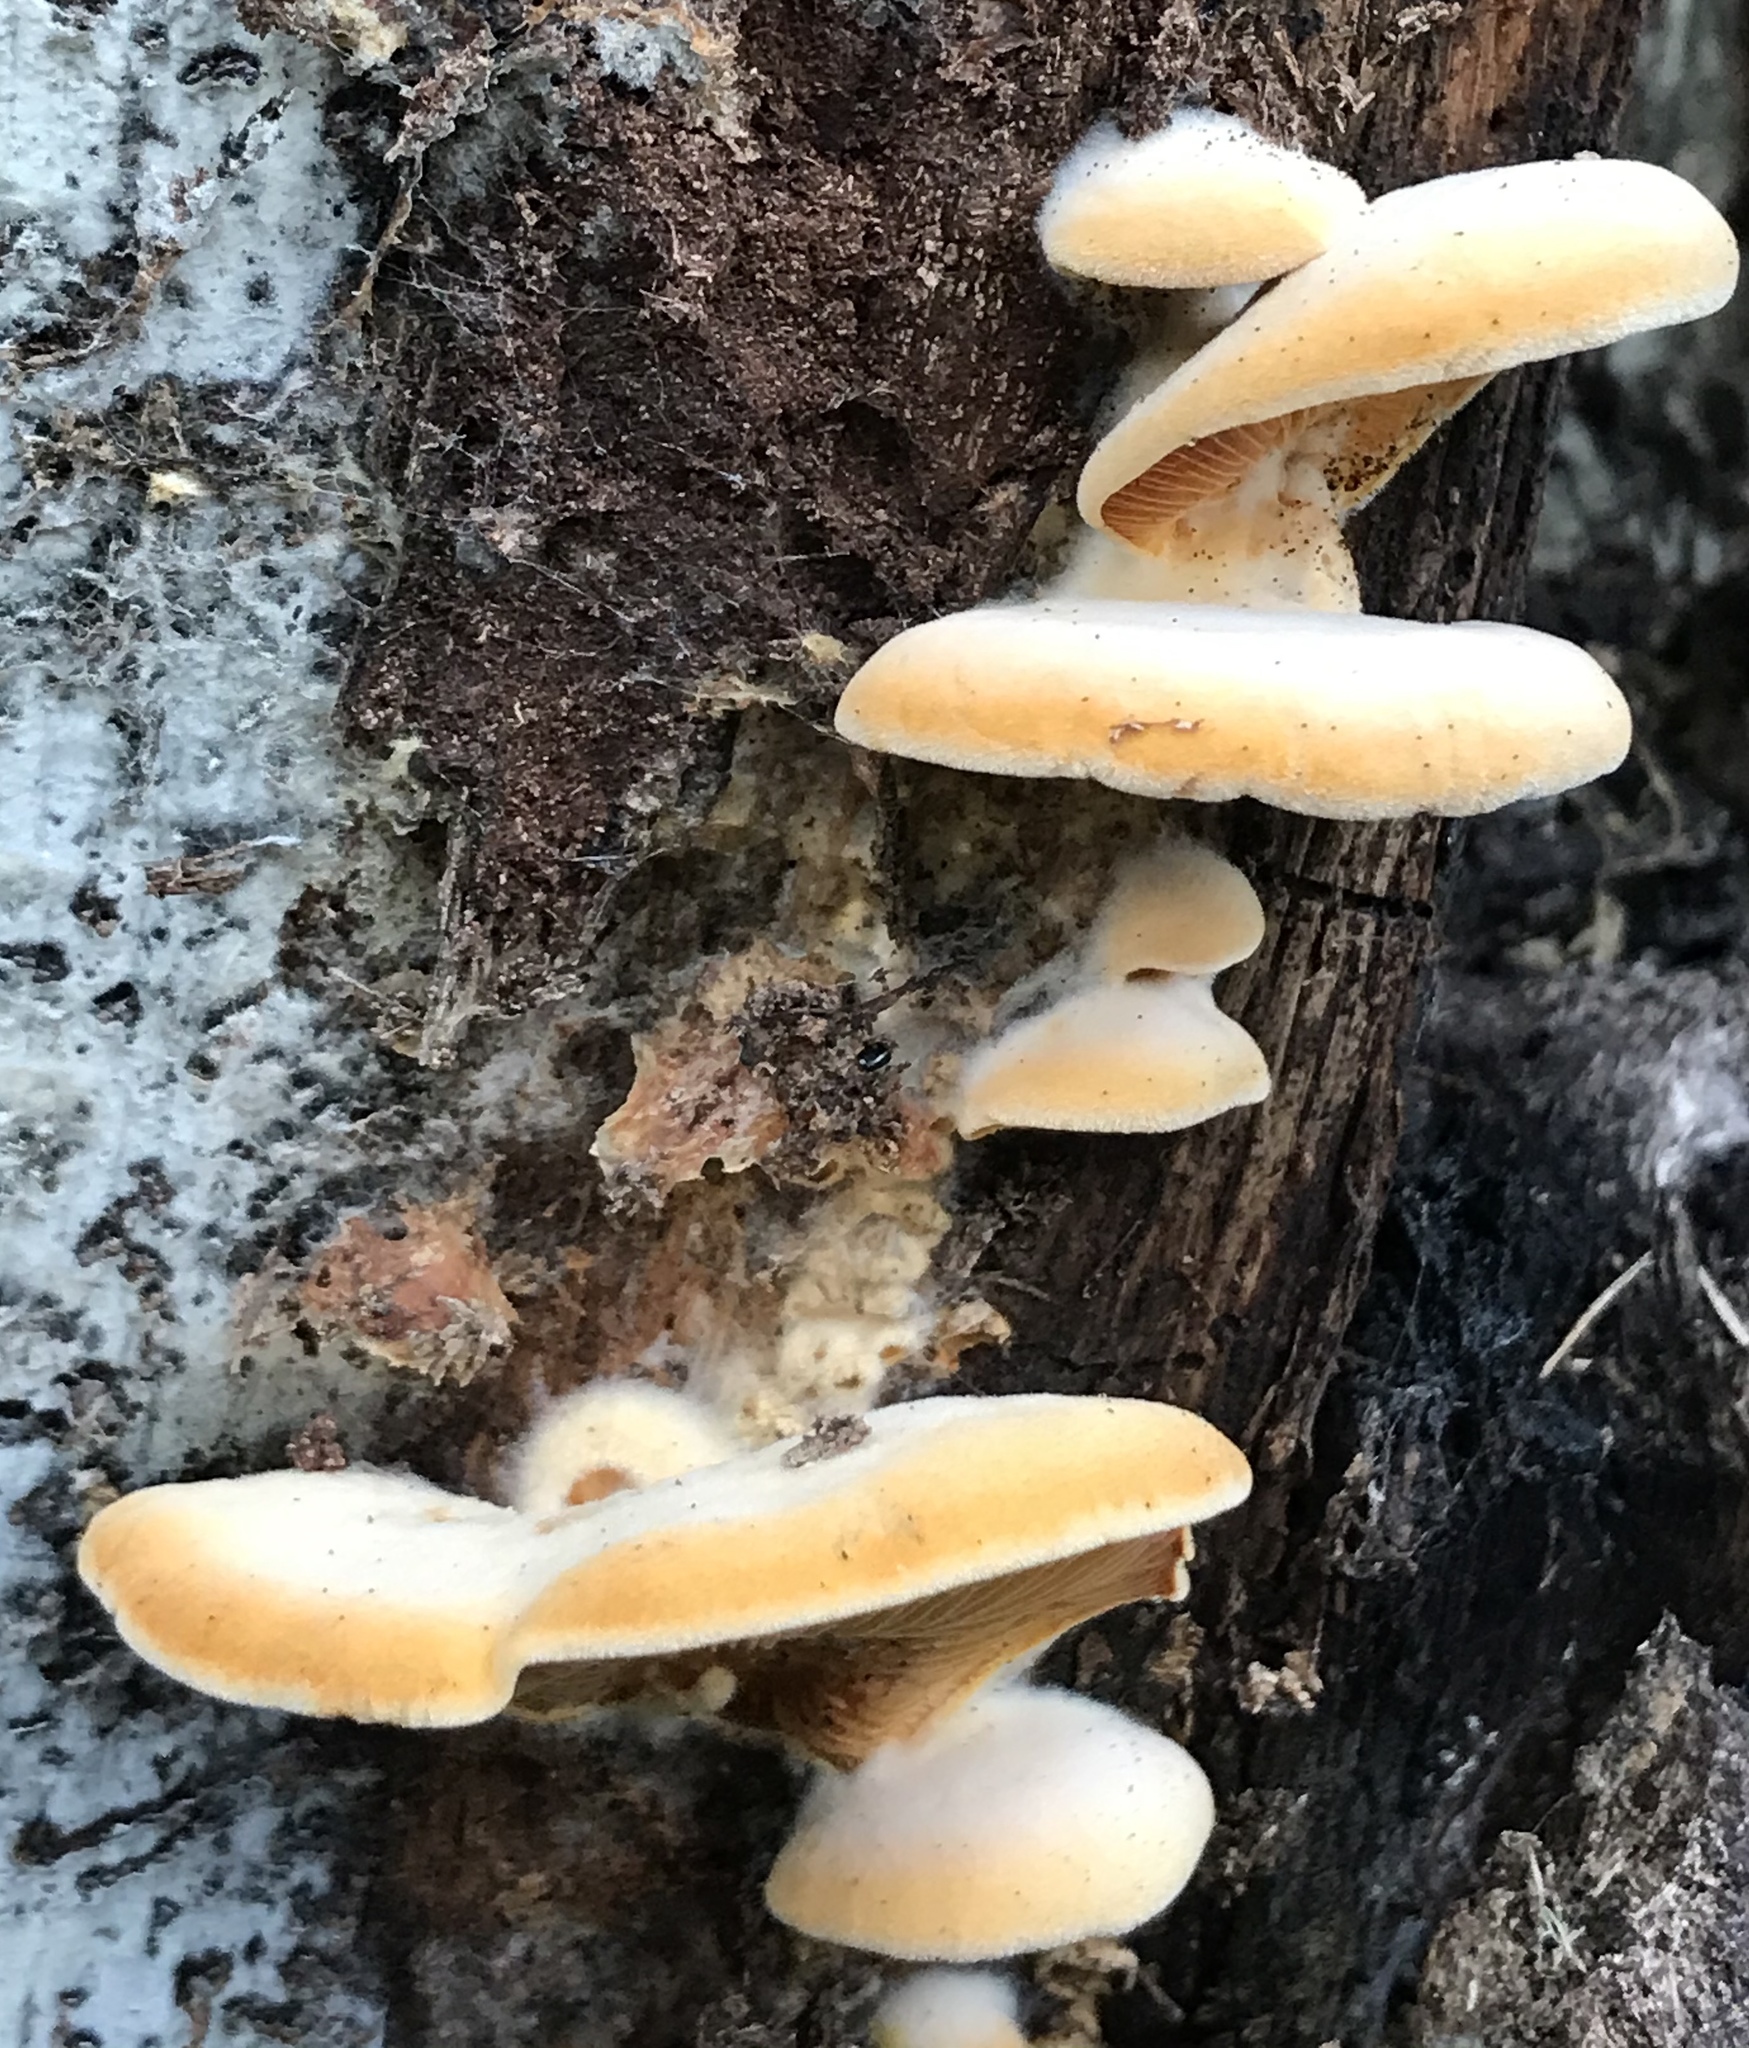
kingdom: Fungi
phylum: Basidiomycota
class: Agaricomycetes
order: Agaricales
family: Phyllotopsidaceae
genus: Phyllotopsis
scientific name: Phyllotopsis nidulans
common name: Orange mock oyster
